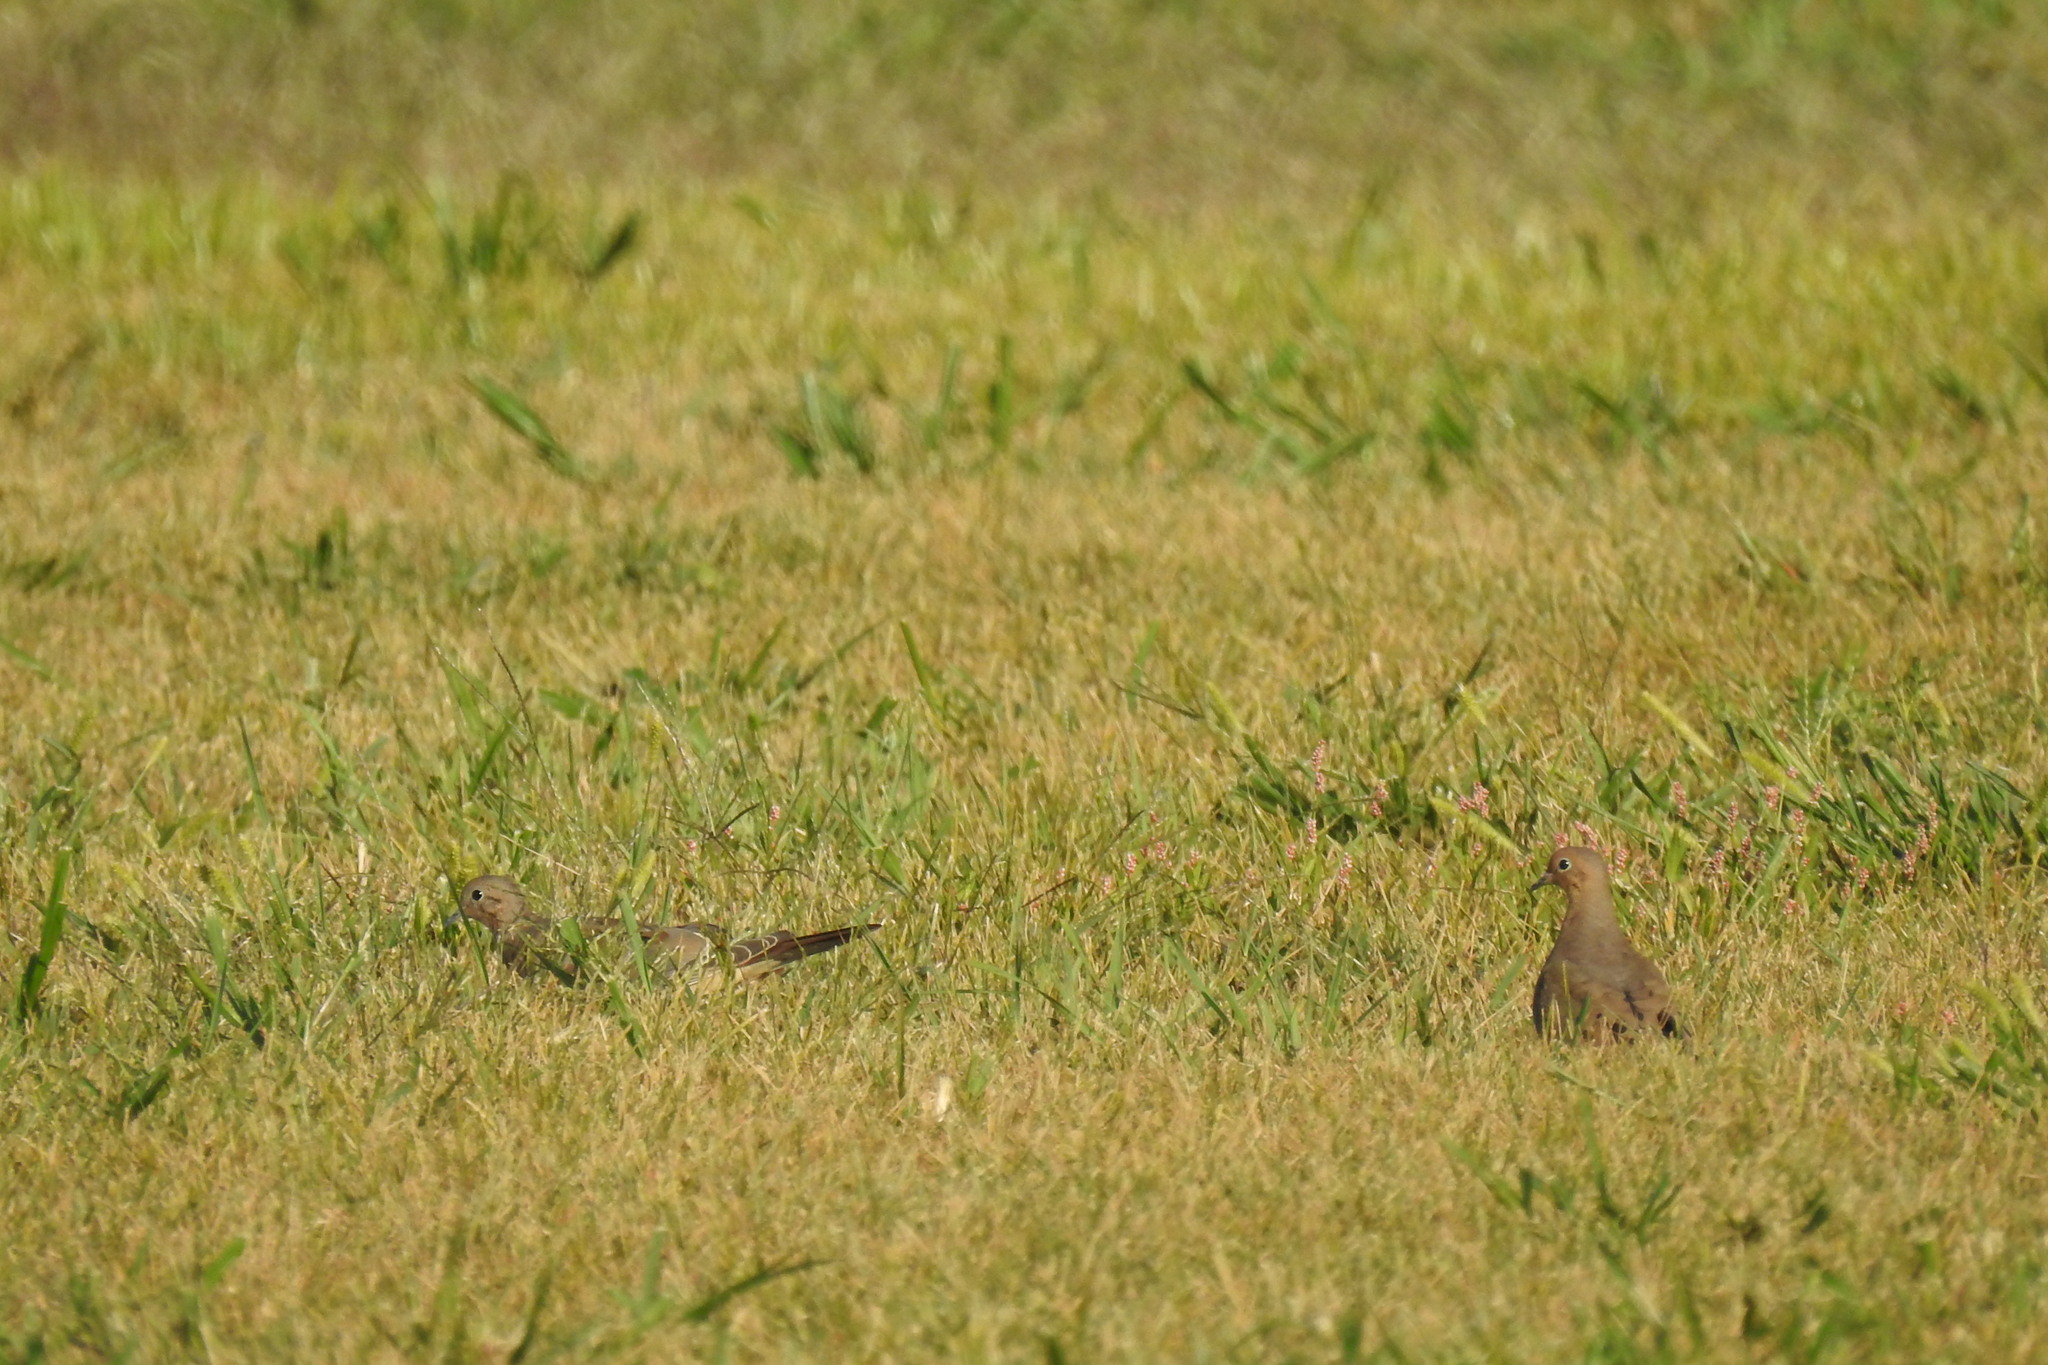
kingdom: Animalia
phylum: Chordata
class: Aves
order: Columbiformes
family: Columbidae
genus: Zenaida
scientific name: Zenaida macroura
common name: Mourning dove
